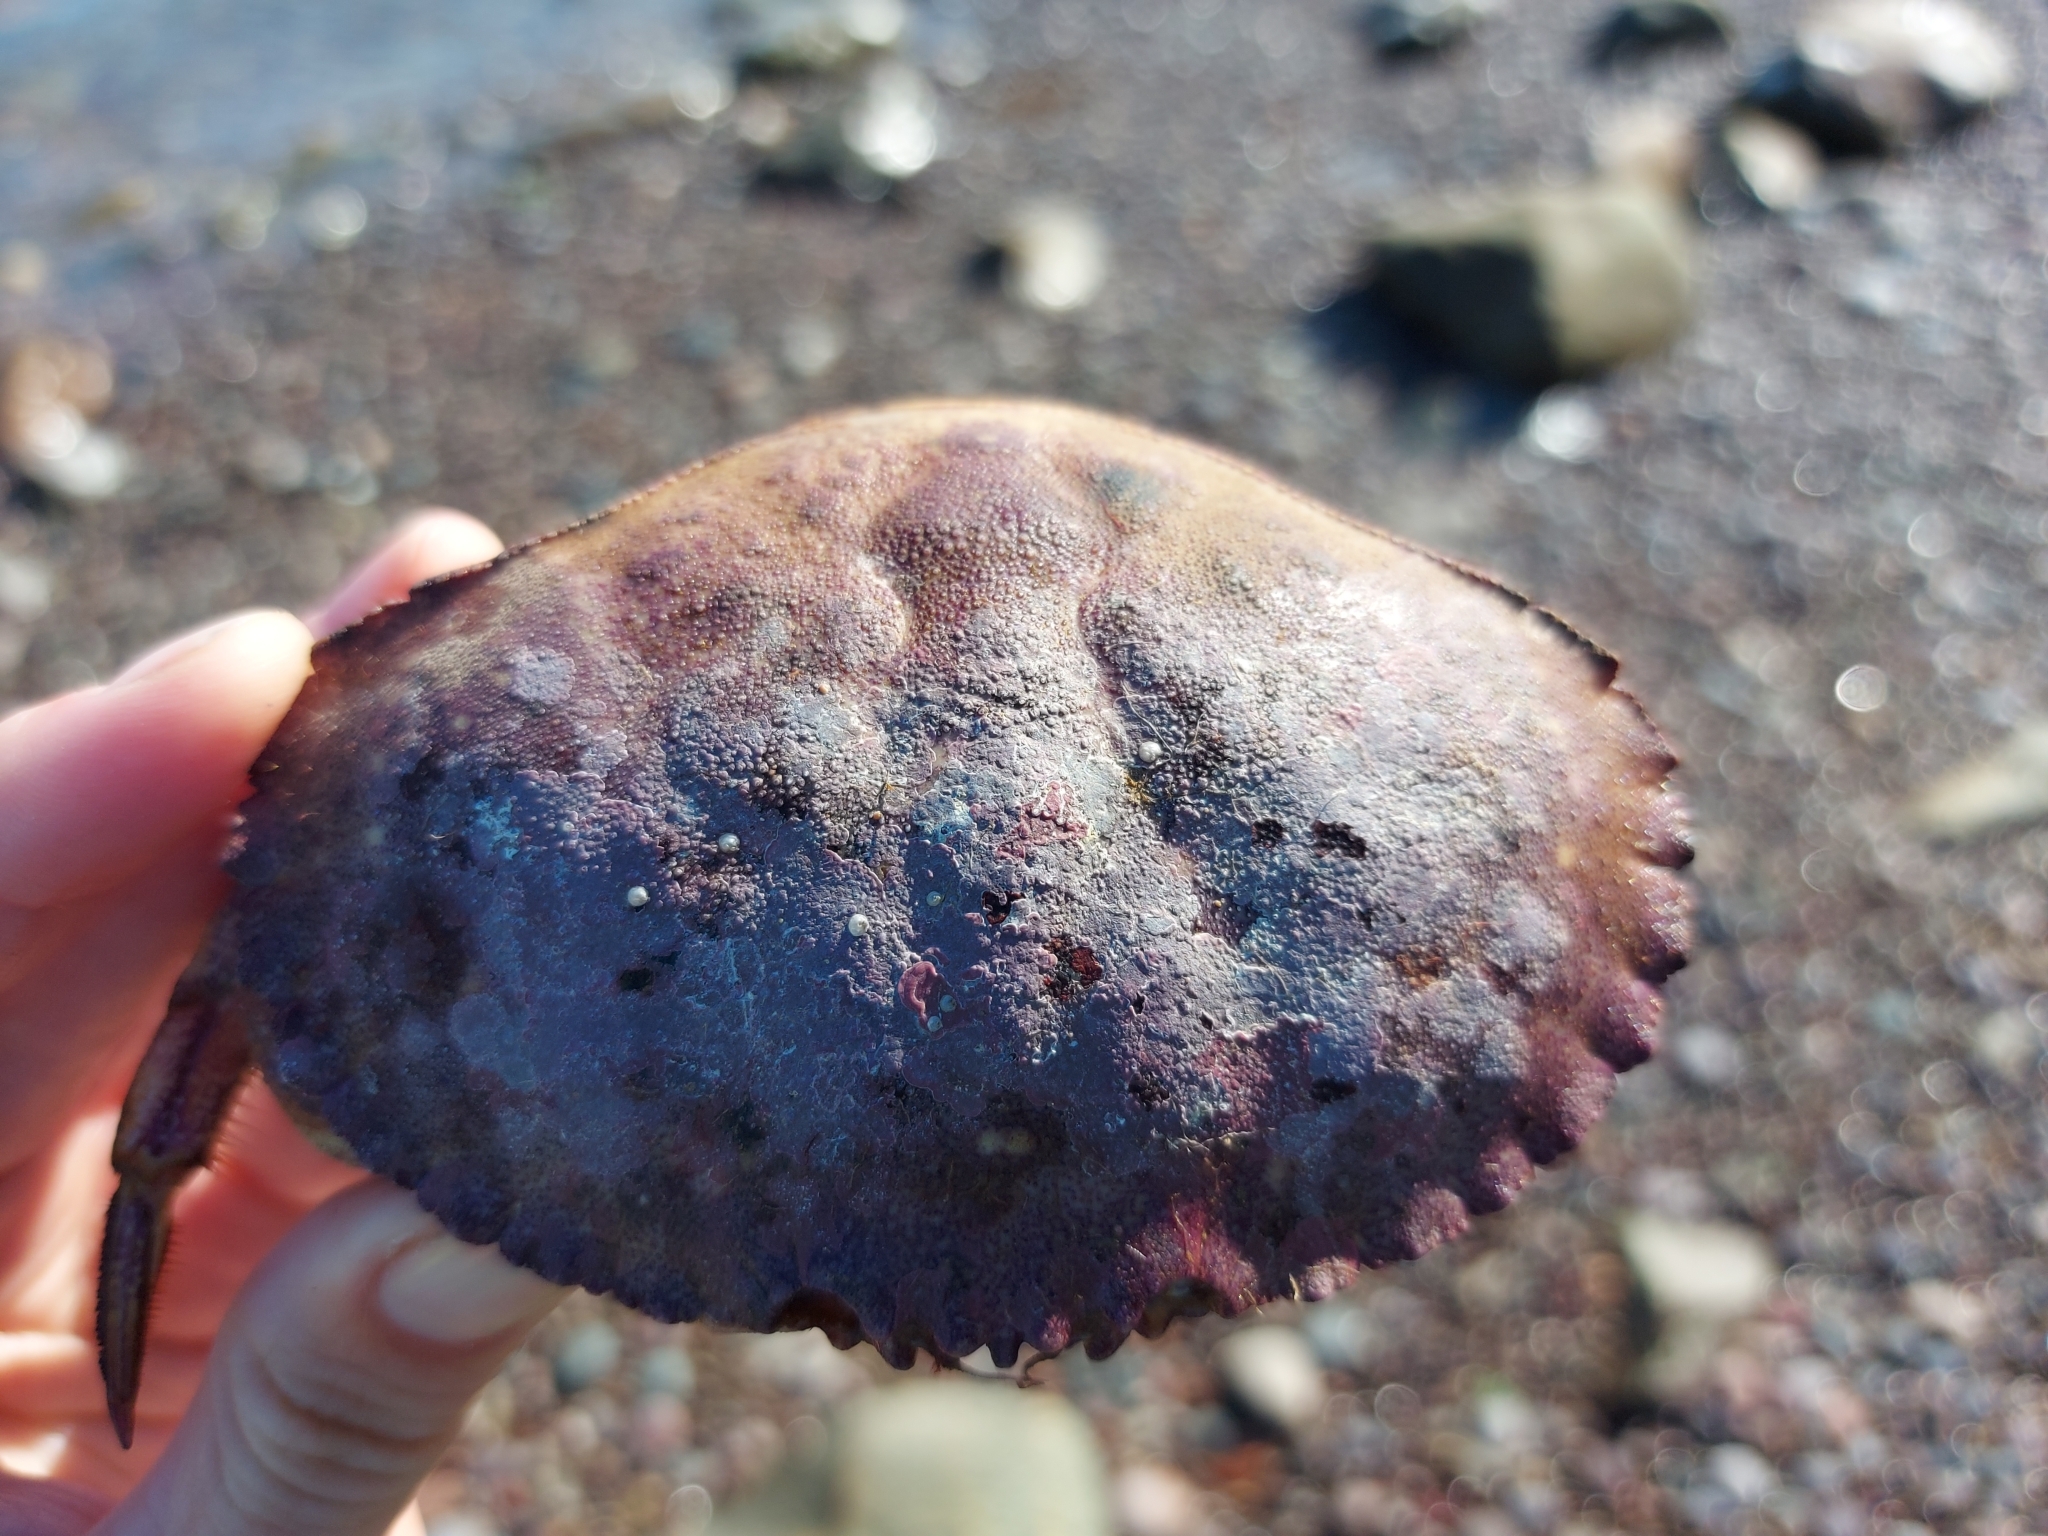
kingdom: Animalia
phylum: Arthropoda
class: Malacostraca
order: Decapoda
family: Cancridae
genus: Cancer
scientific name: Cancer borealis
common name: Jonah crab
